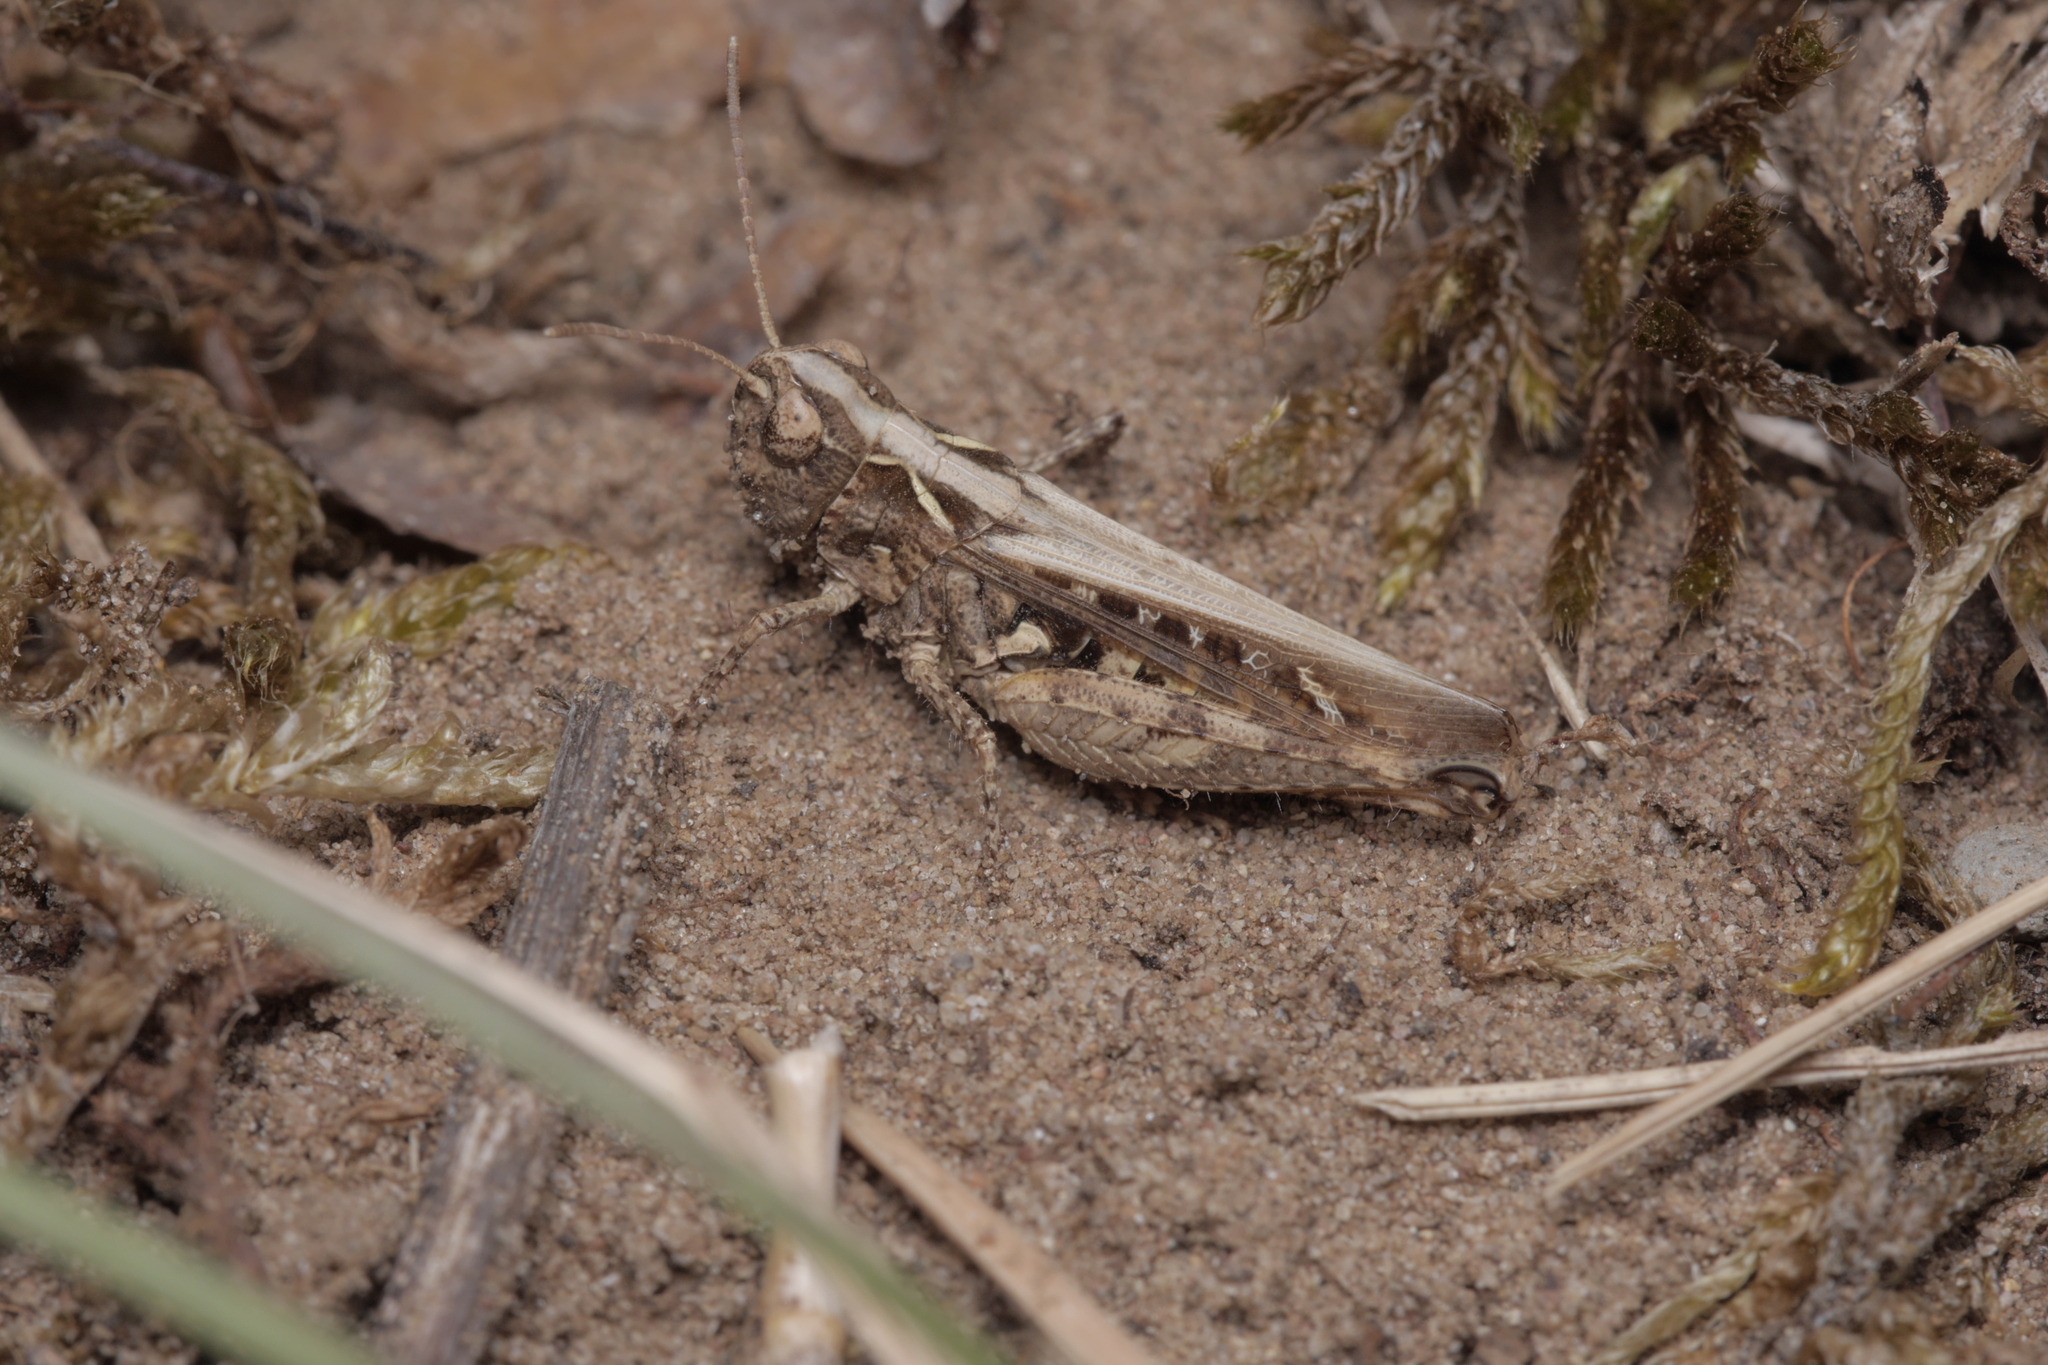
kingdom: Animalia
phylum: Arthropoda
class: Insecta
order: Orthoptera
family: Acrididae
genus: Myrmeleotettix
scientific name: Myrmeleotettix maculatus
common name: Mottled grasshopper
